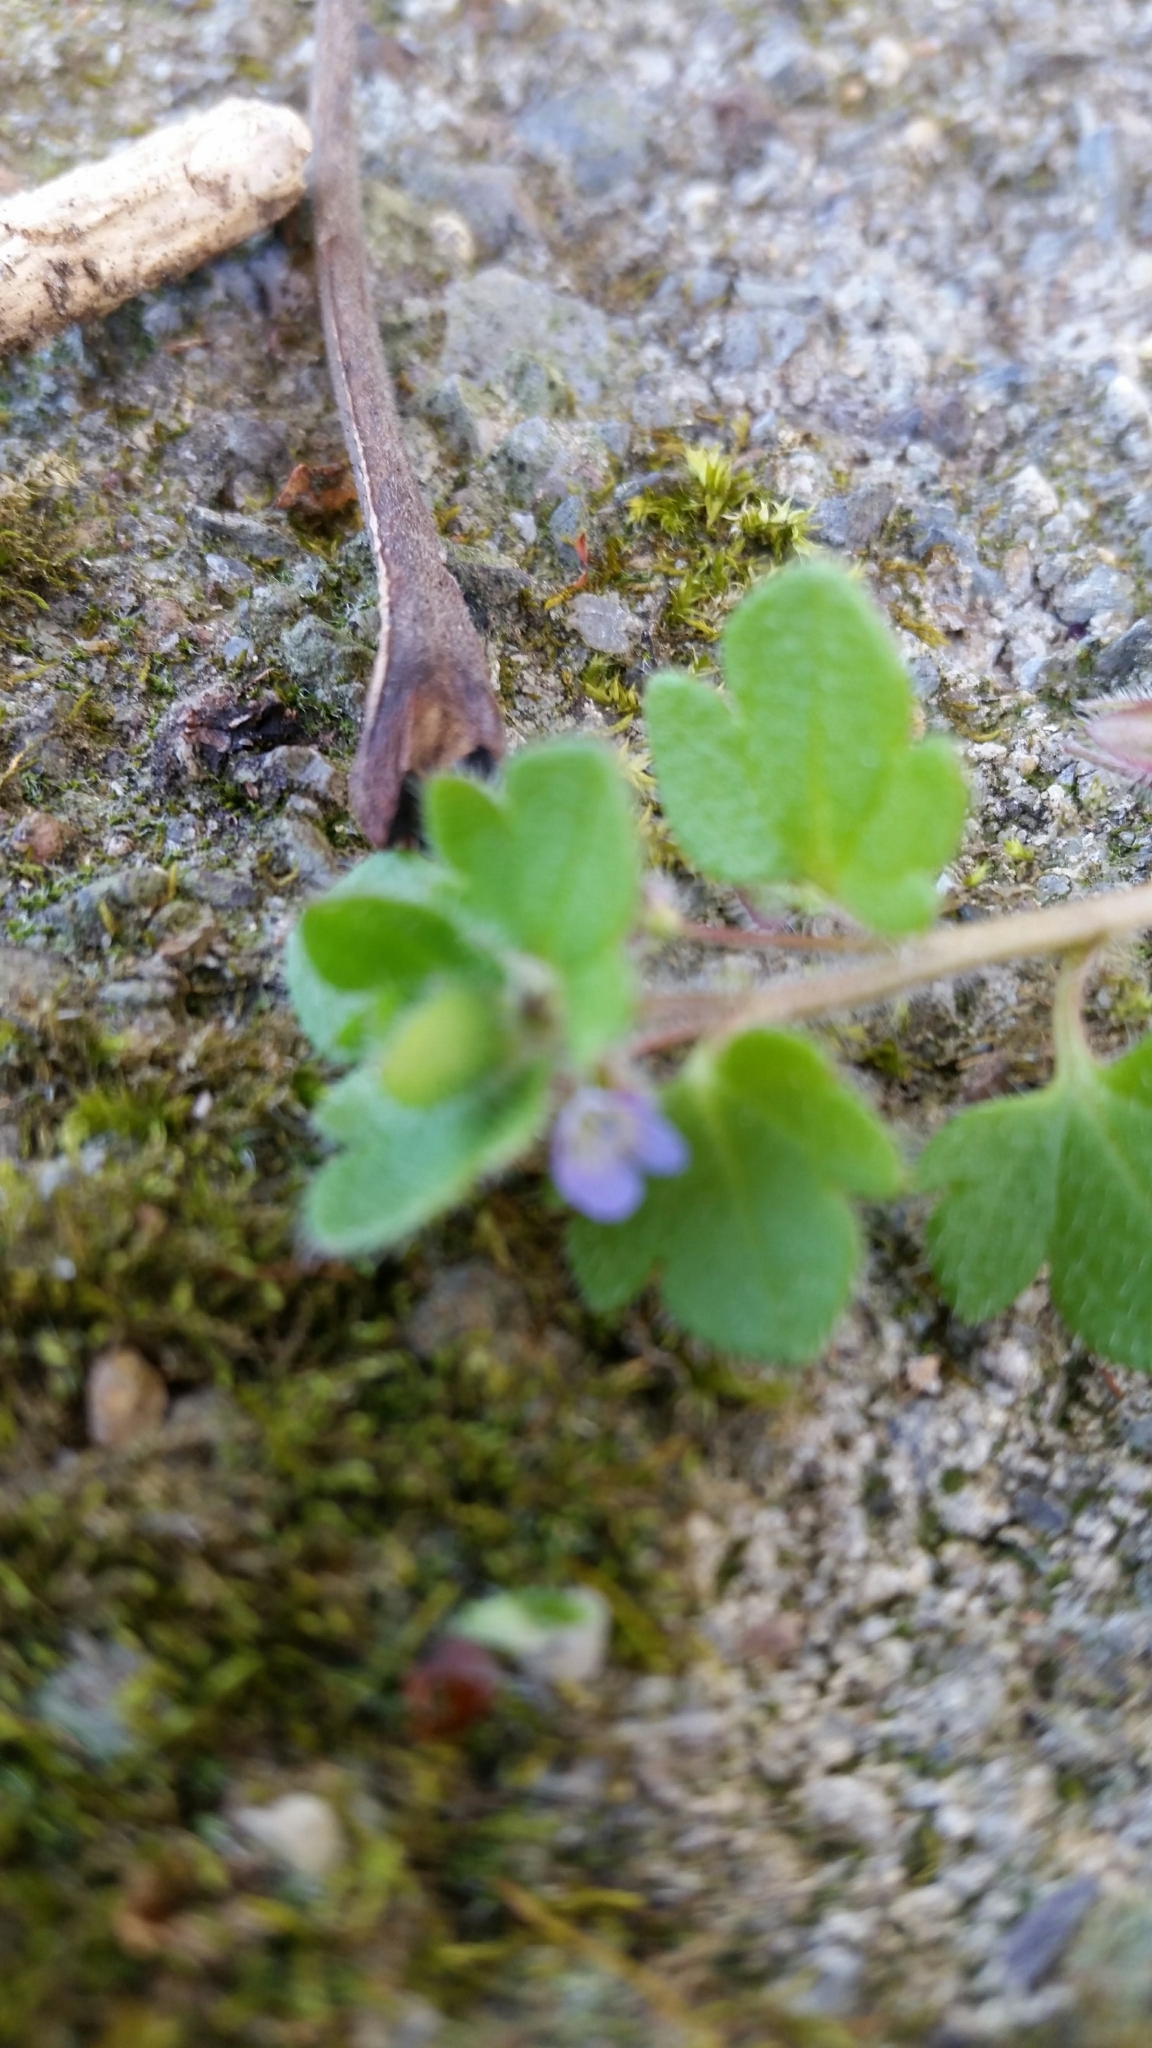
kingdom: Plantae
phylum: Tracheophyta
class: Magnoliopsida
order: Lamiales
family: Plantaginaceae
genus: Veronica
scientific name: Veronica hederifolia
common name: Ivy-leaved speedwell
